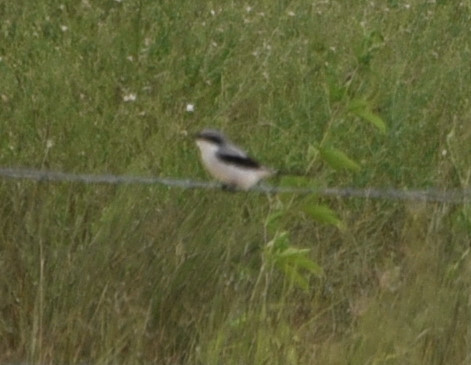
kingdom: Animalia
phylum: Chordata
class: Aves
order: Passeriformes
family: Laniidae
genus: Lanius
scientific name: Lanius ludovicianus
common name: Loggerhead shrike
